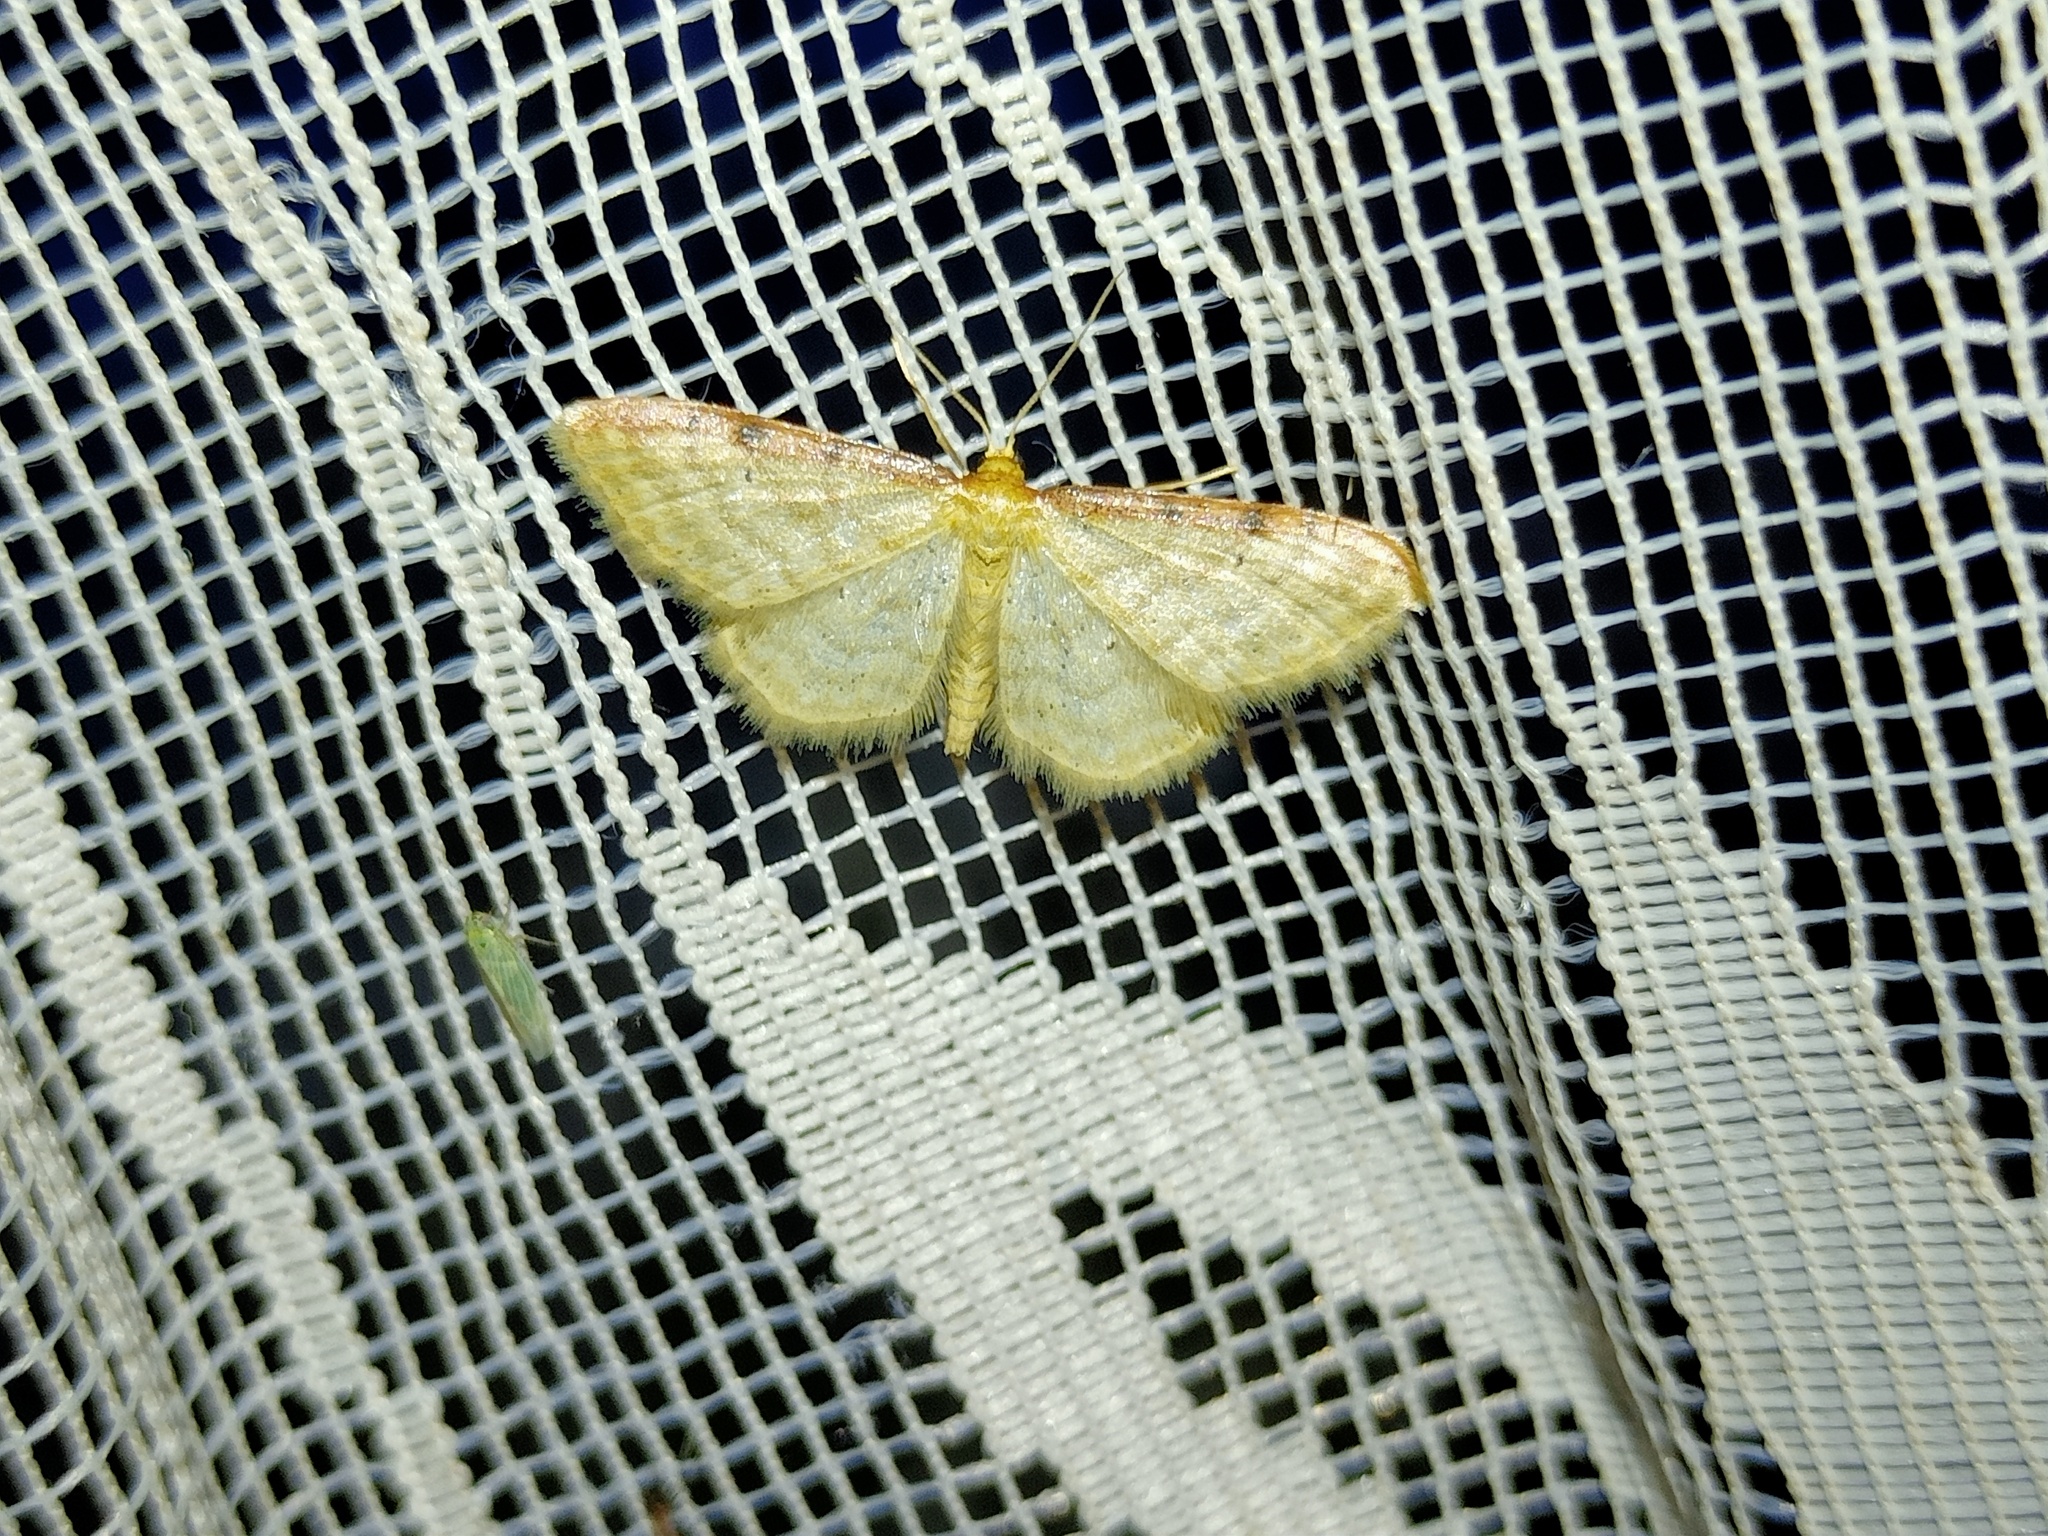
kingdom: Animalia
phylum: Arthropoda
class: Insecta
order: Lepidoptera
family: Geometridae
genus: Idaea
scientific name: Idaea humiliata
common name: Isle of wight wave
